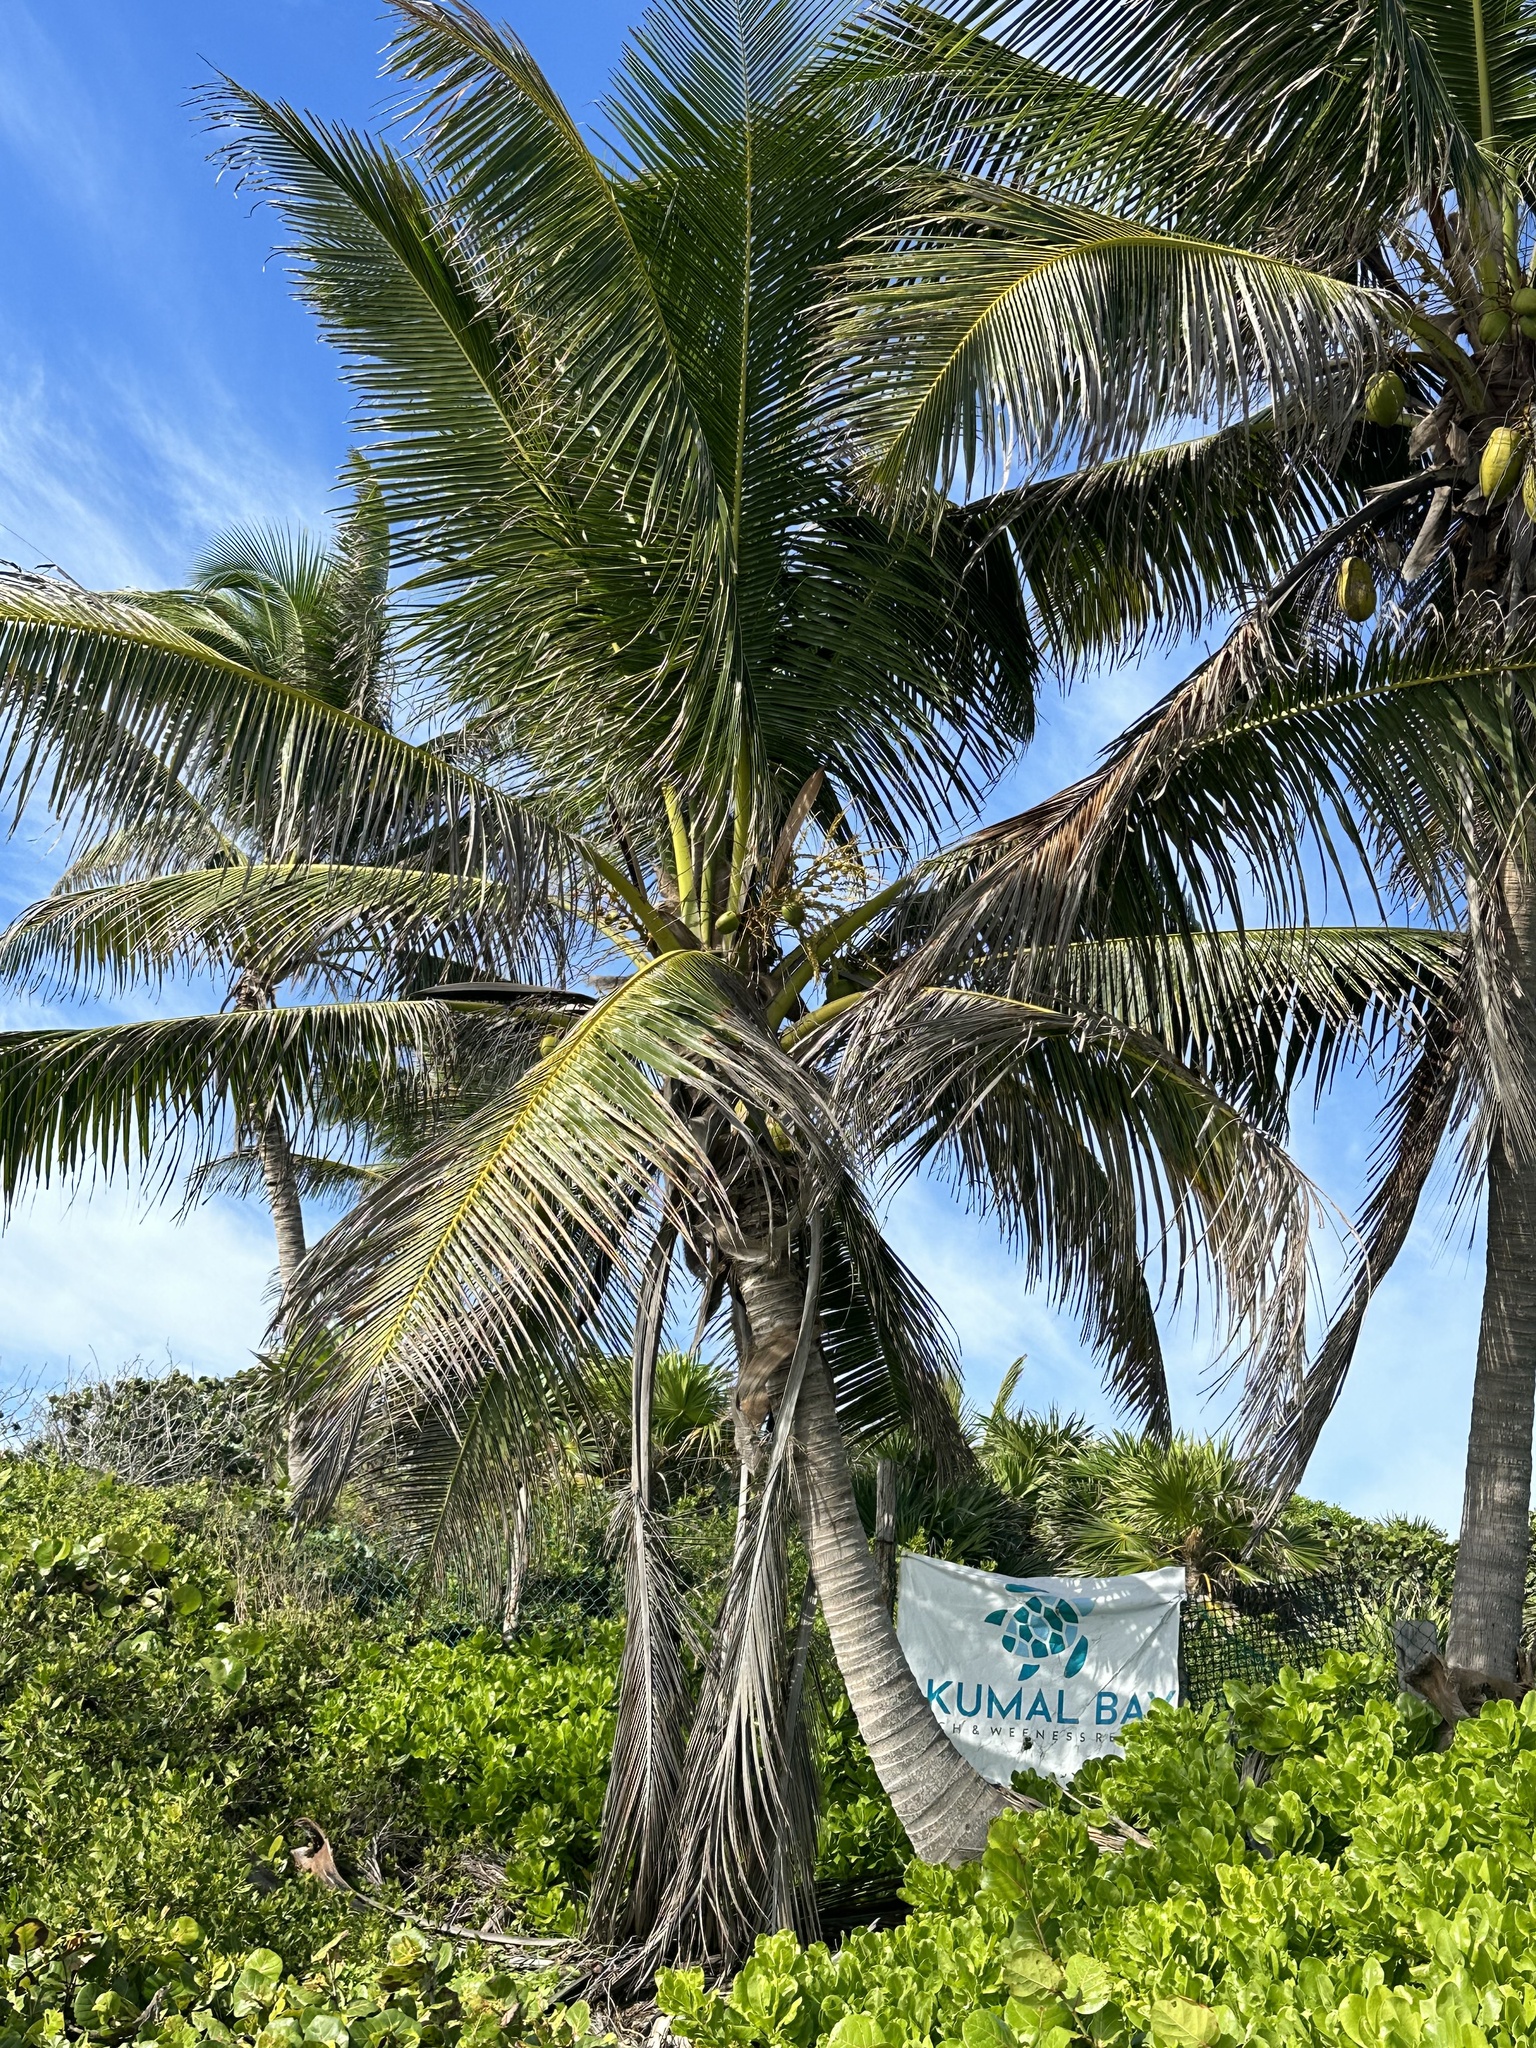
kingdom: Plantae
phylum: Tracheophyta
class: Liliopsida
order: Arecales
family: Arecaceae
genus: Cocos
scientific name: Cocos nucifera
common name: Coconut palm
